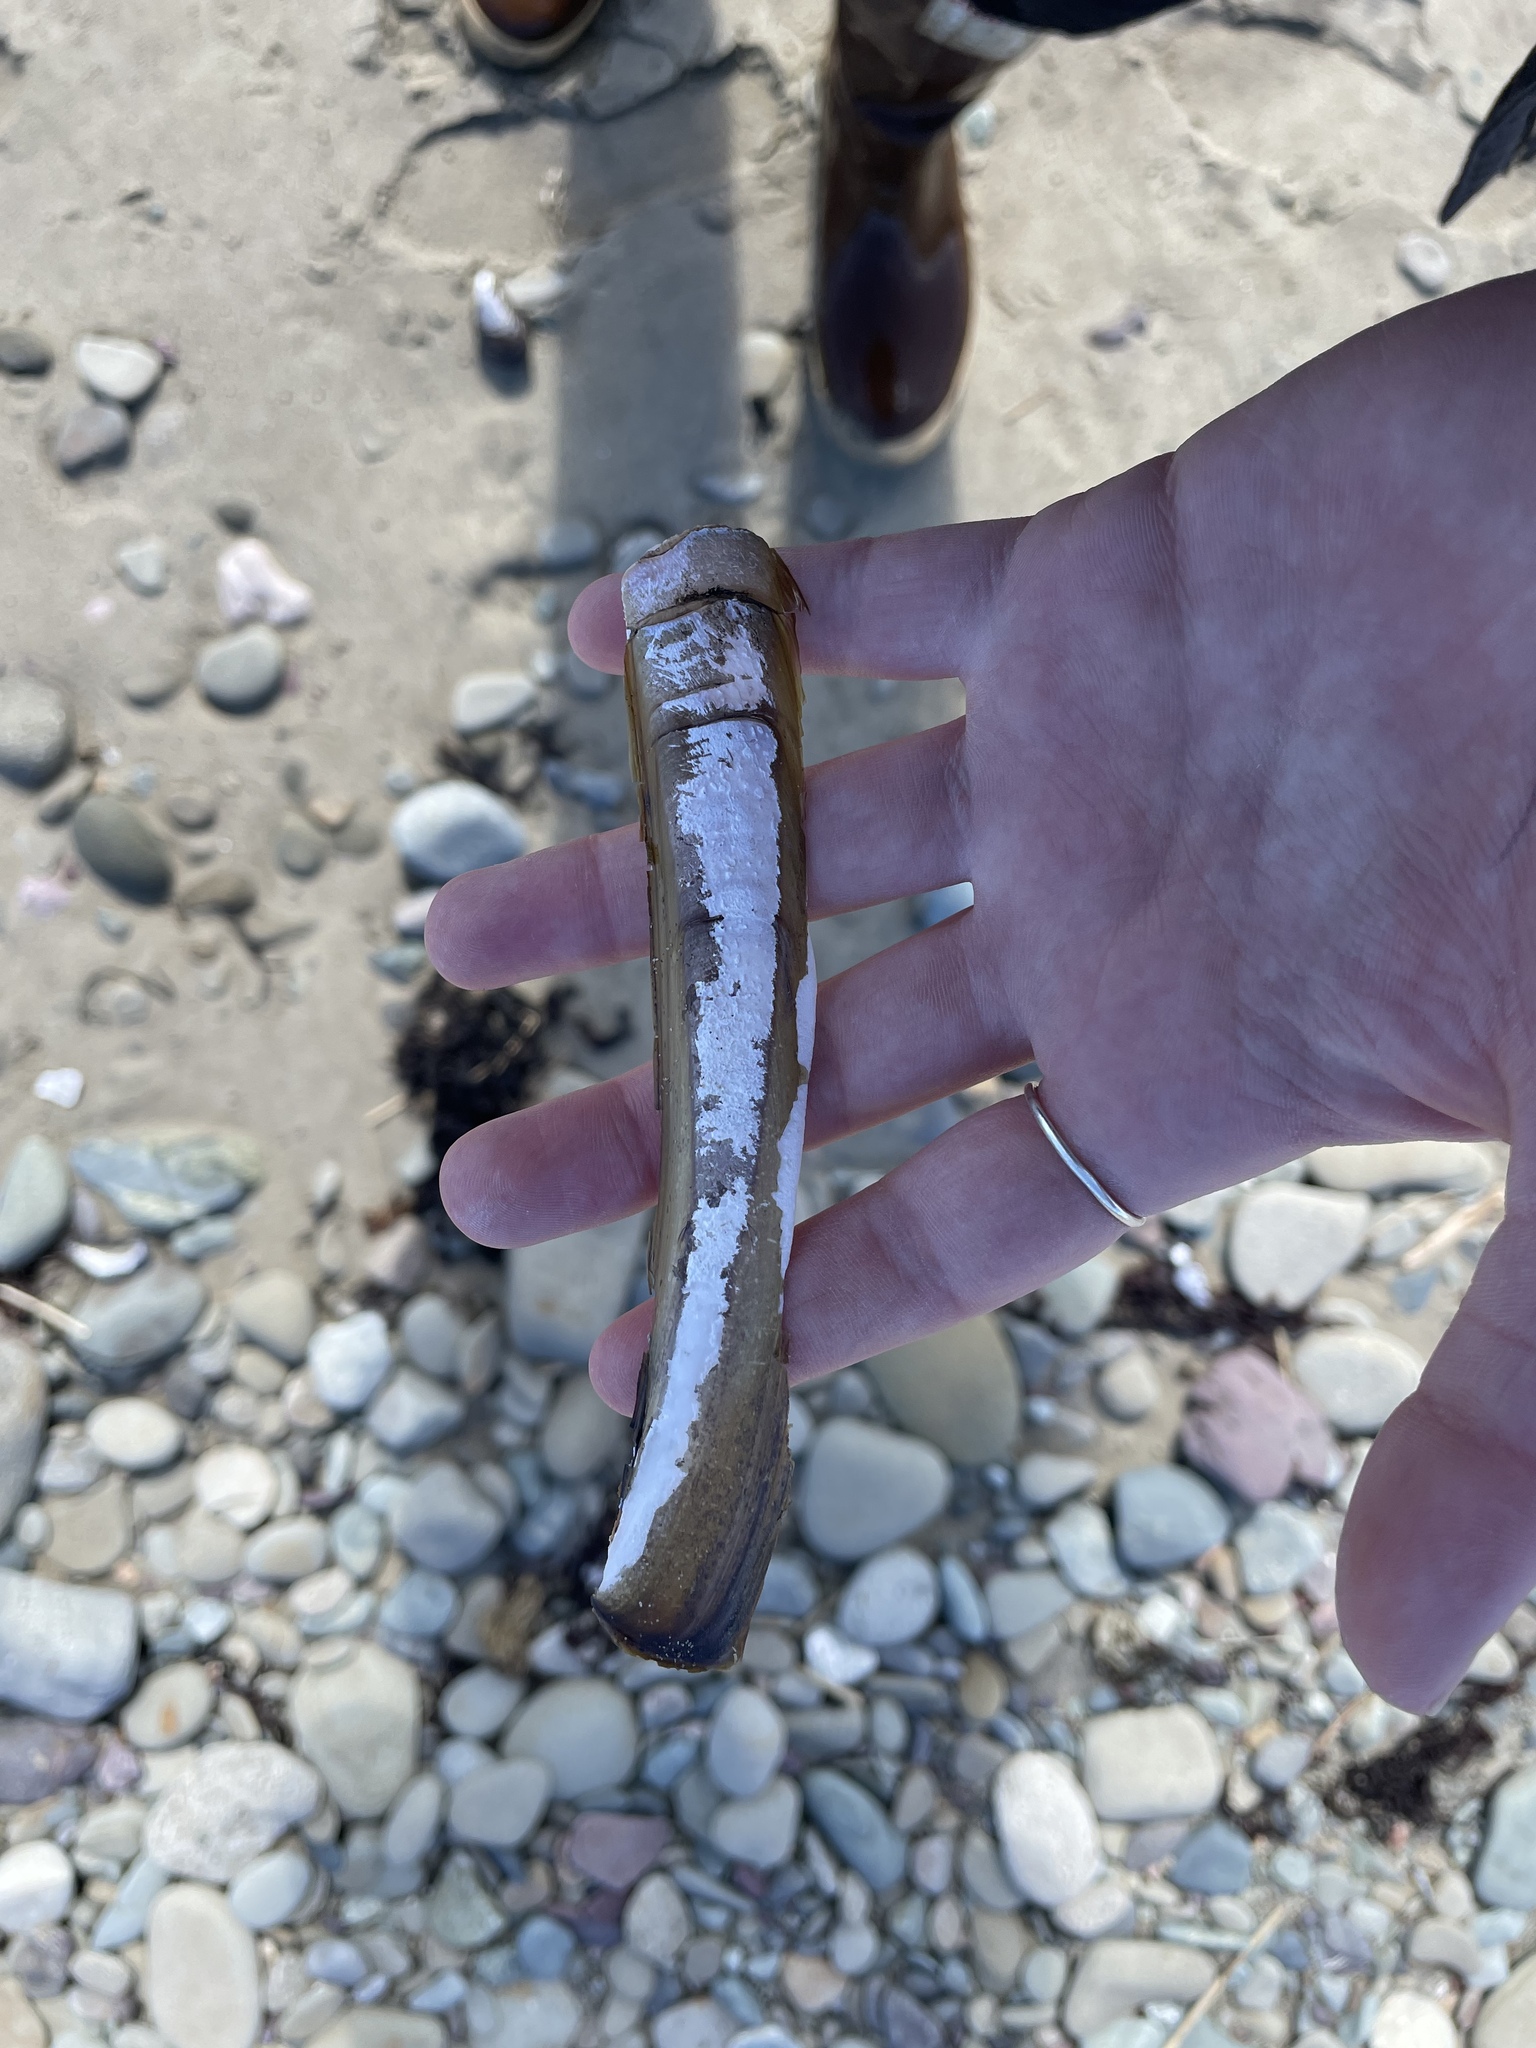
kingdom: Animalia
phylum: Mollusca
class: Bivalvia
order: Adapedonta
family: Pharidae
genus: Ensis
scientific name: Ensis leei
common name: American jack knife clam
